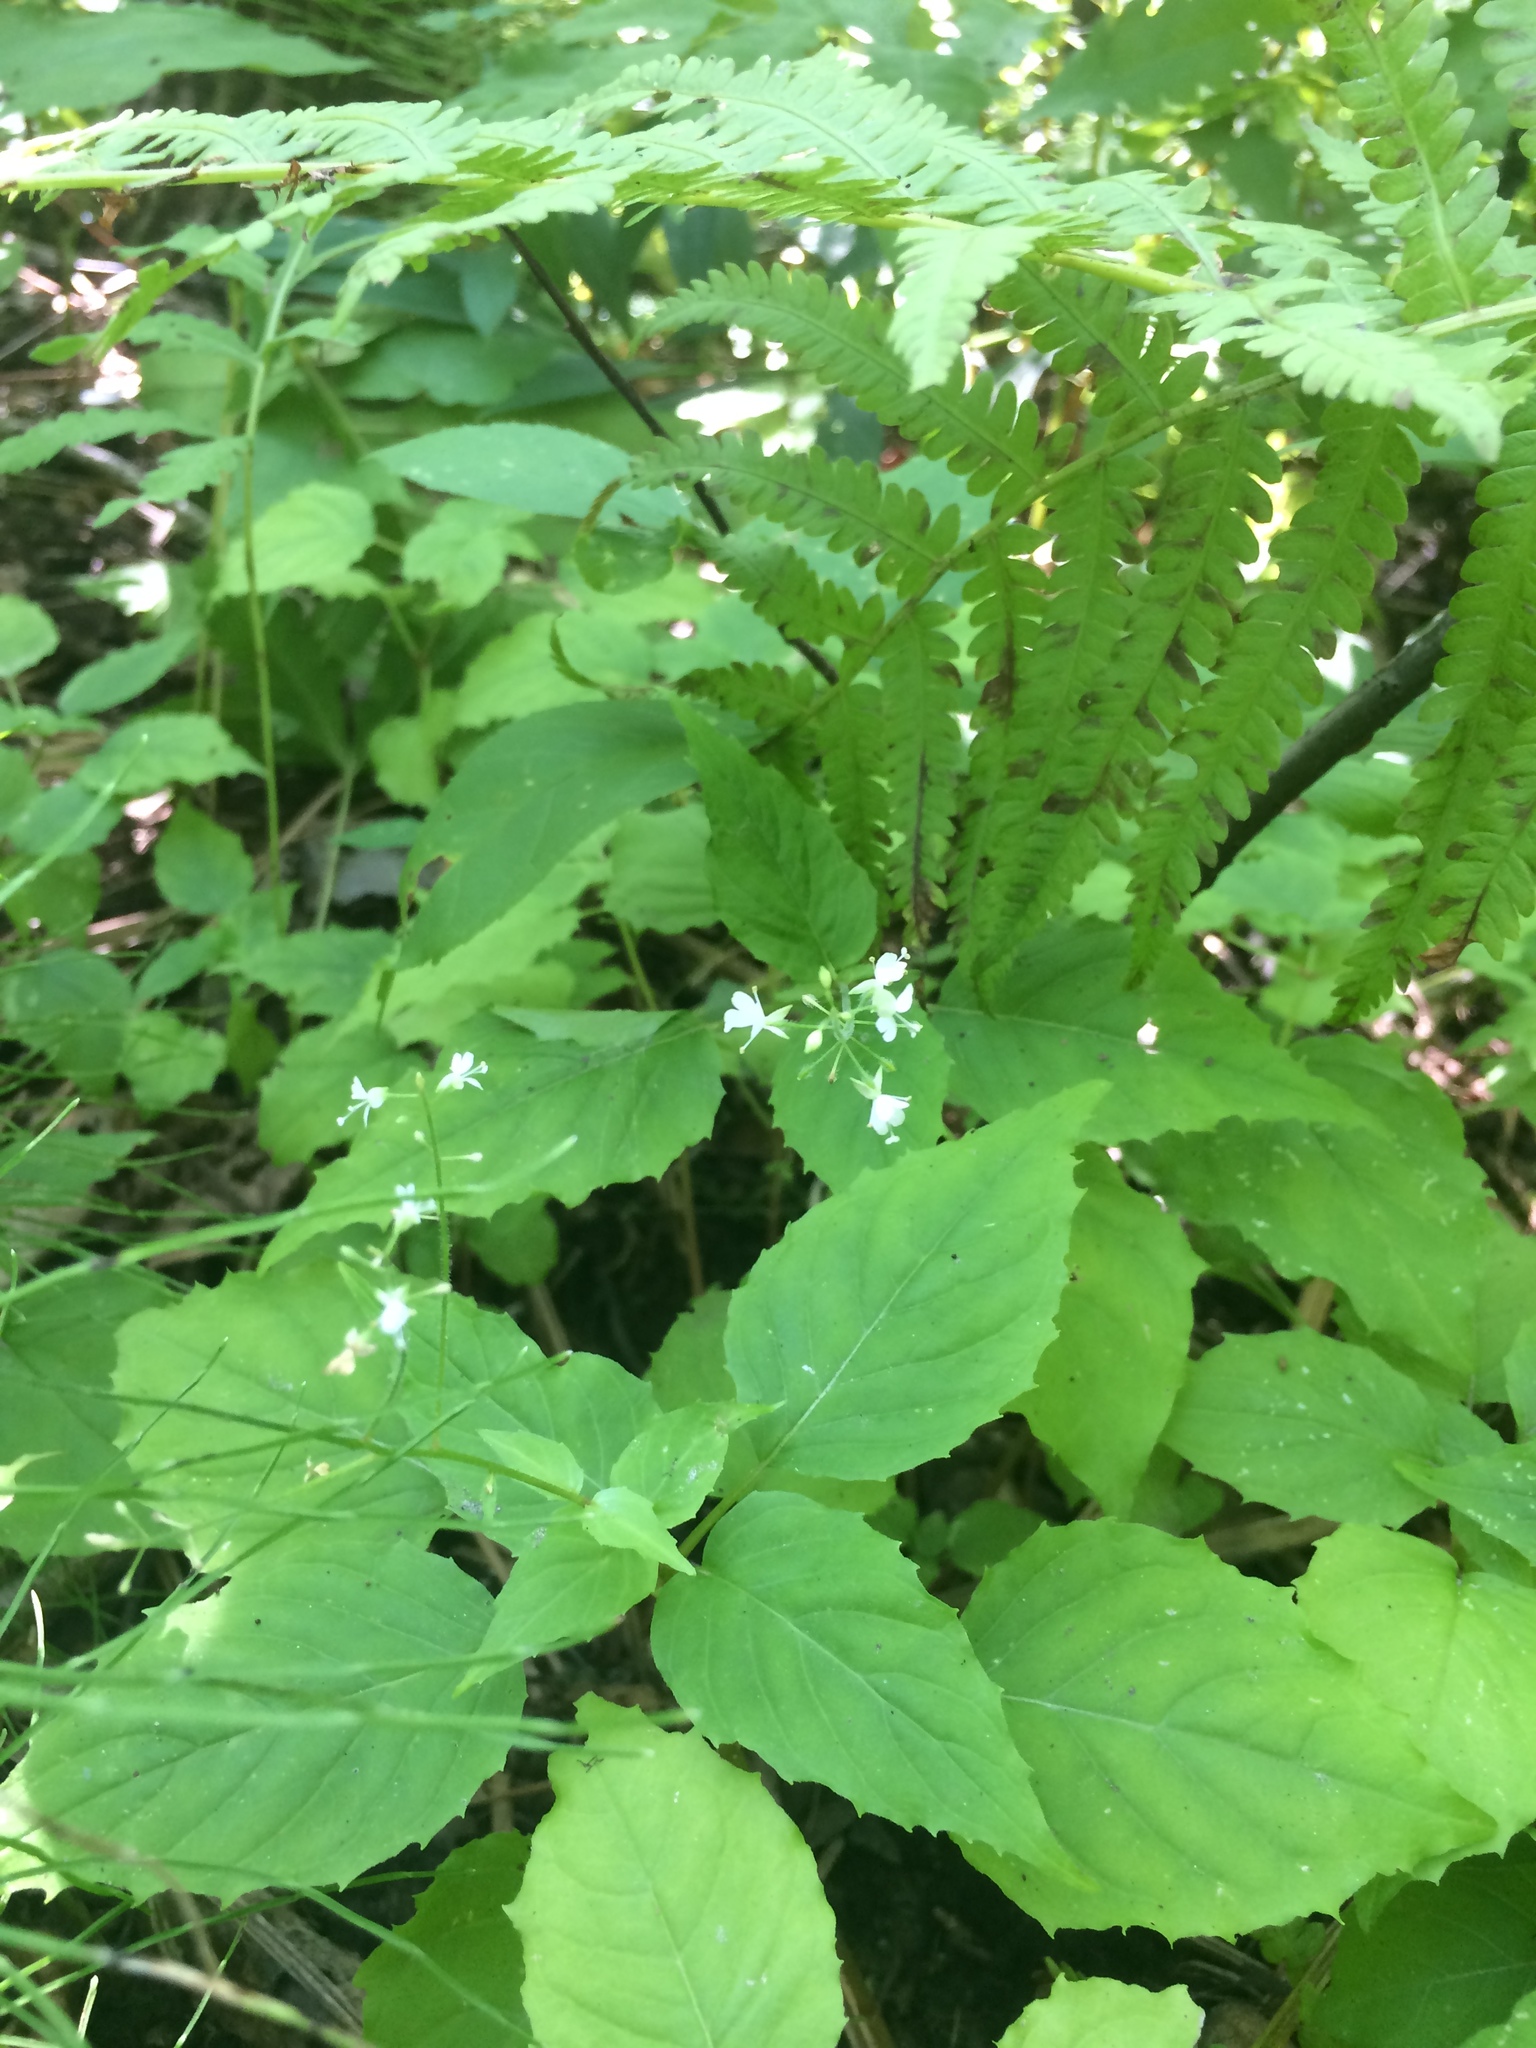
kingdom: Plantae
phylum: Tracheophyta
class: Magnoliopsida
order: Myrtales
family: Onagraceae
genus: Circaea
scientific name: Circaea alpina
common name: Alpine enchanter's-nightshade
